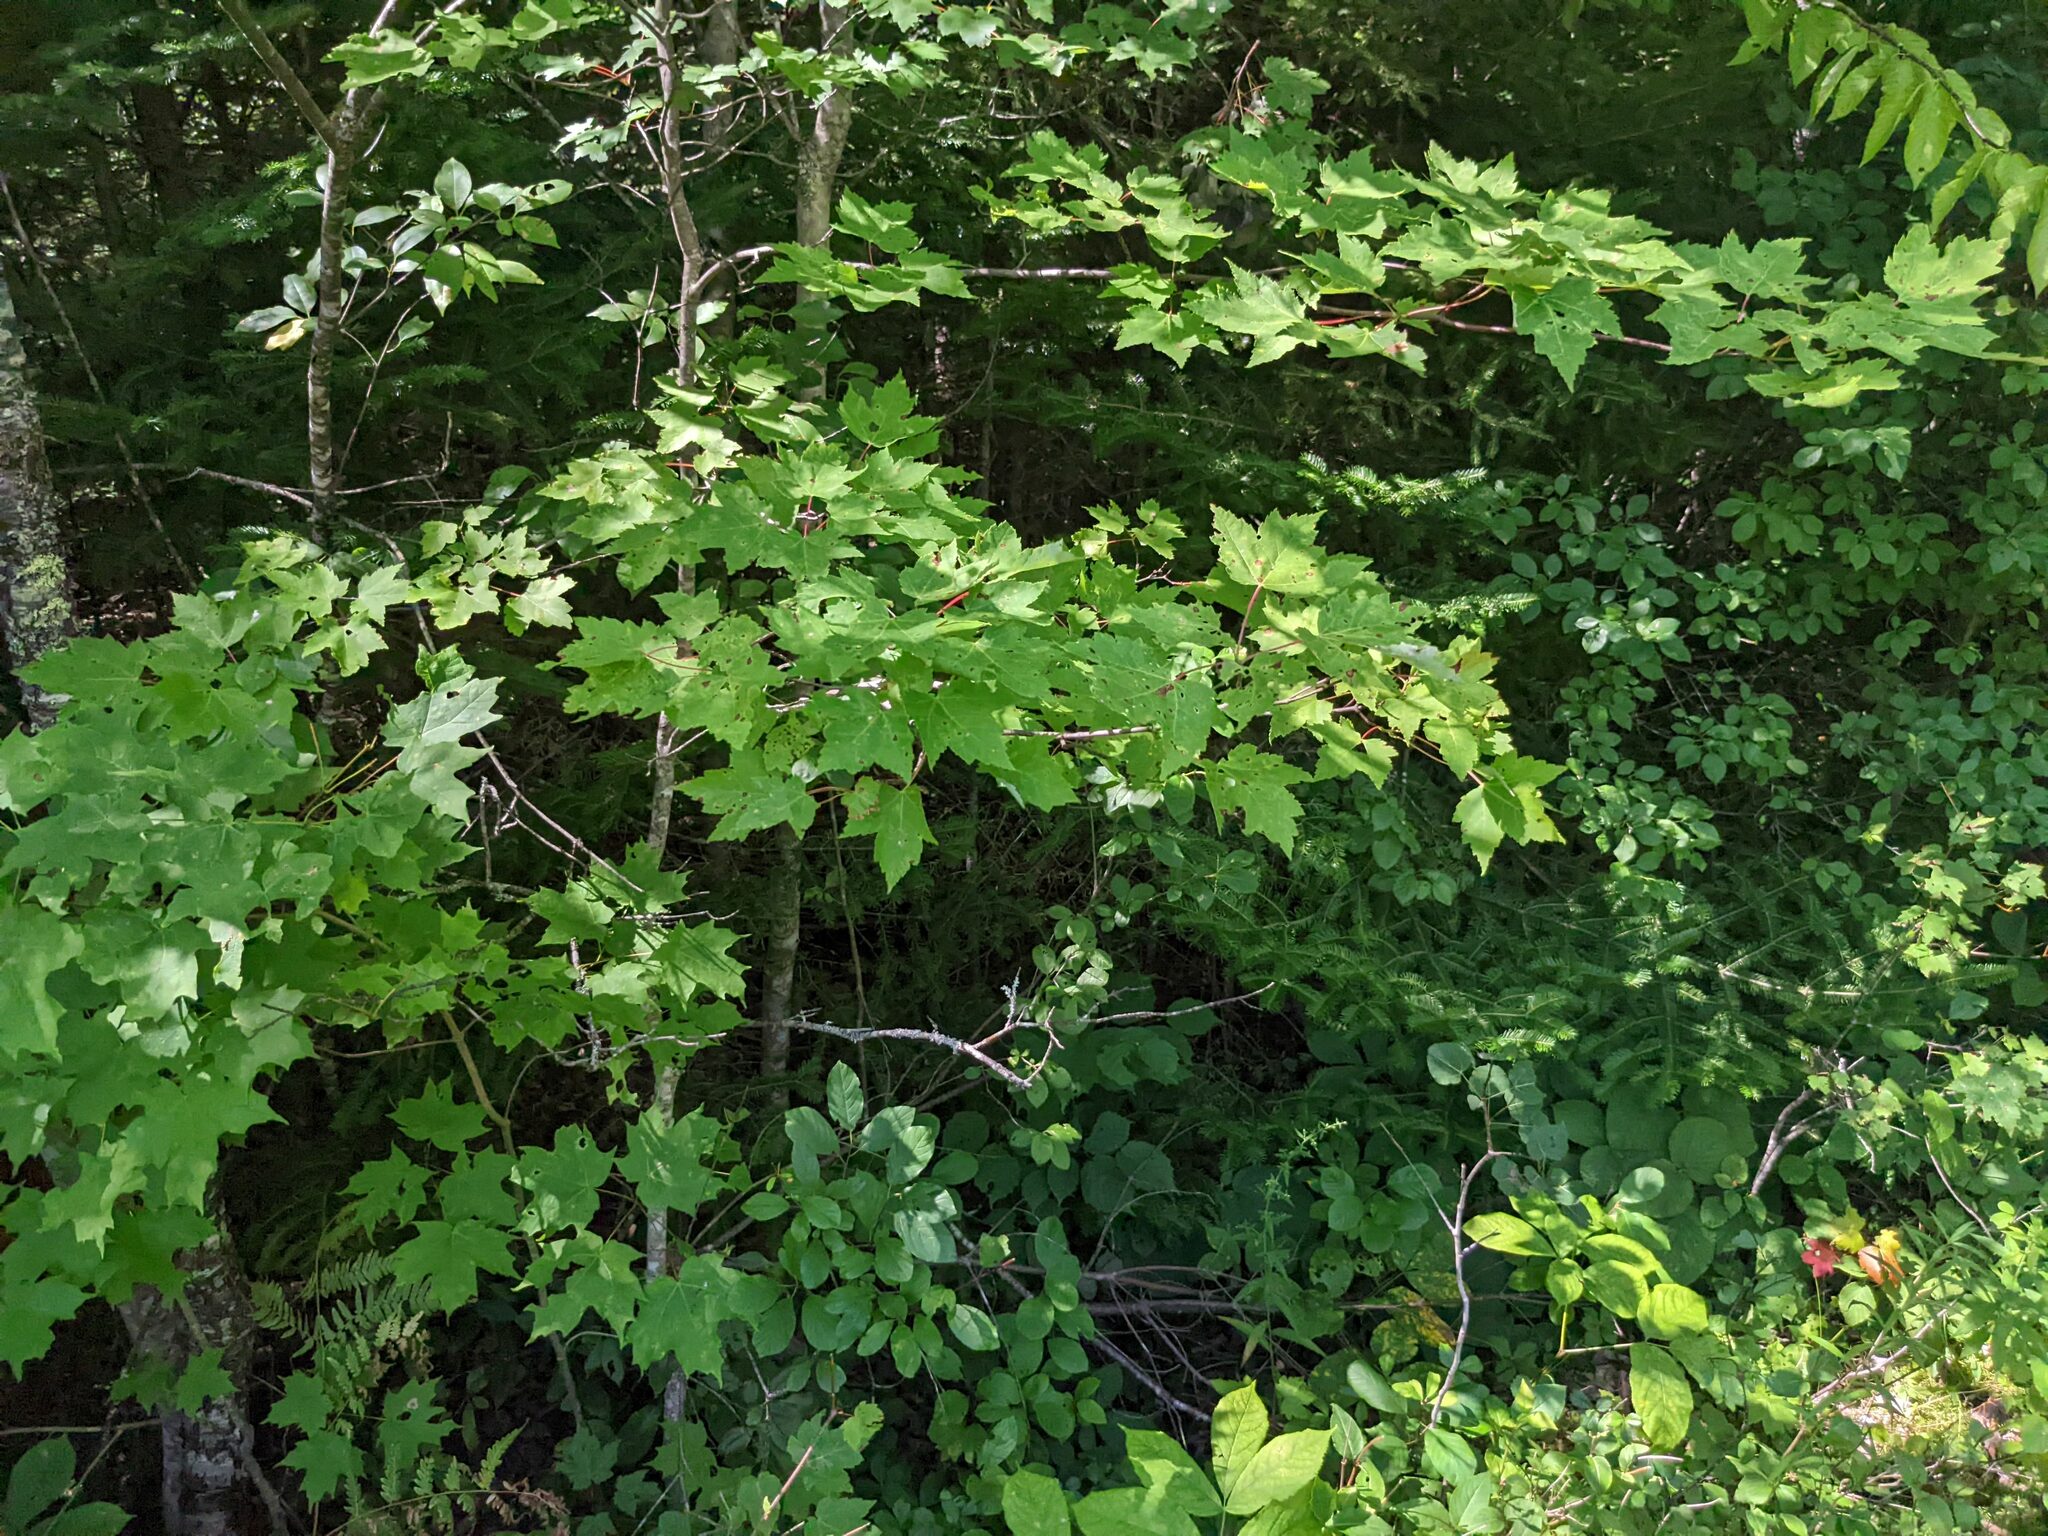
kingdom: Plantae
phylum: Tracheophyta
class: Magnoliopsida
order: Sapindales
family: Sapindaceae
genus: Acer
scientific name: Acer rubrum
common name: Red maple
